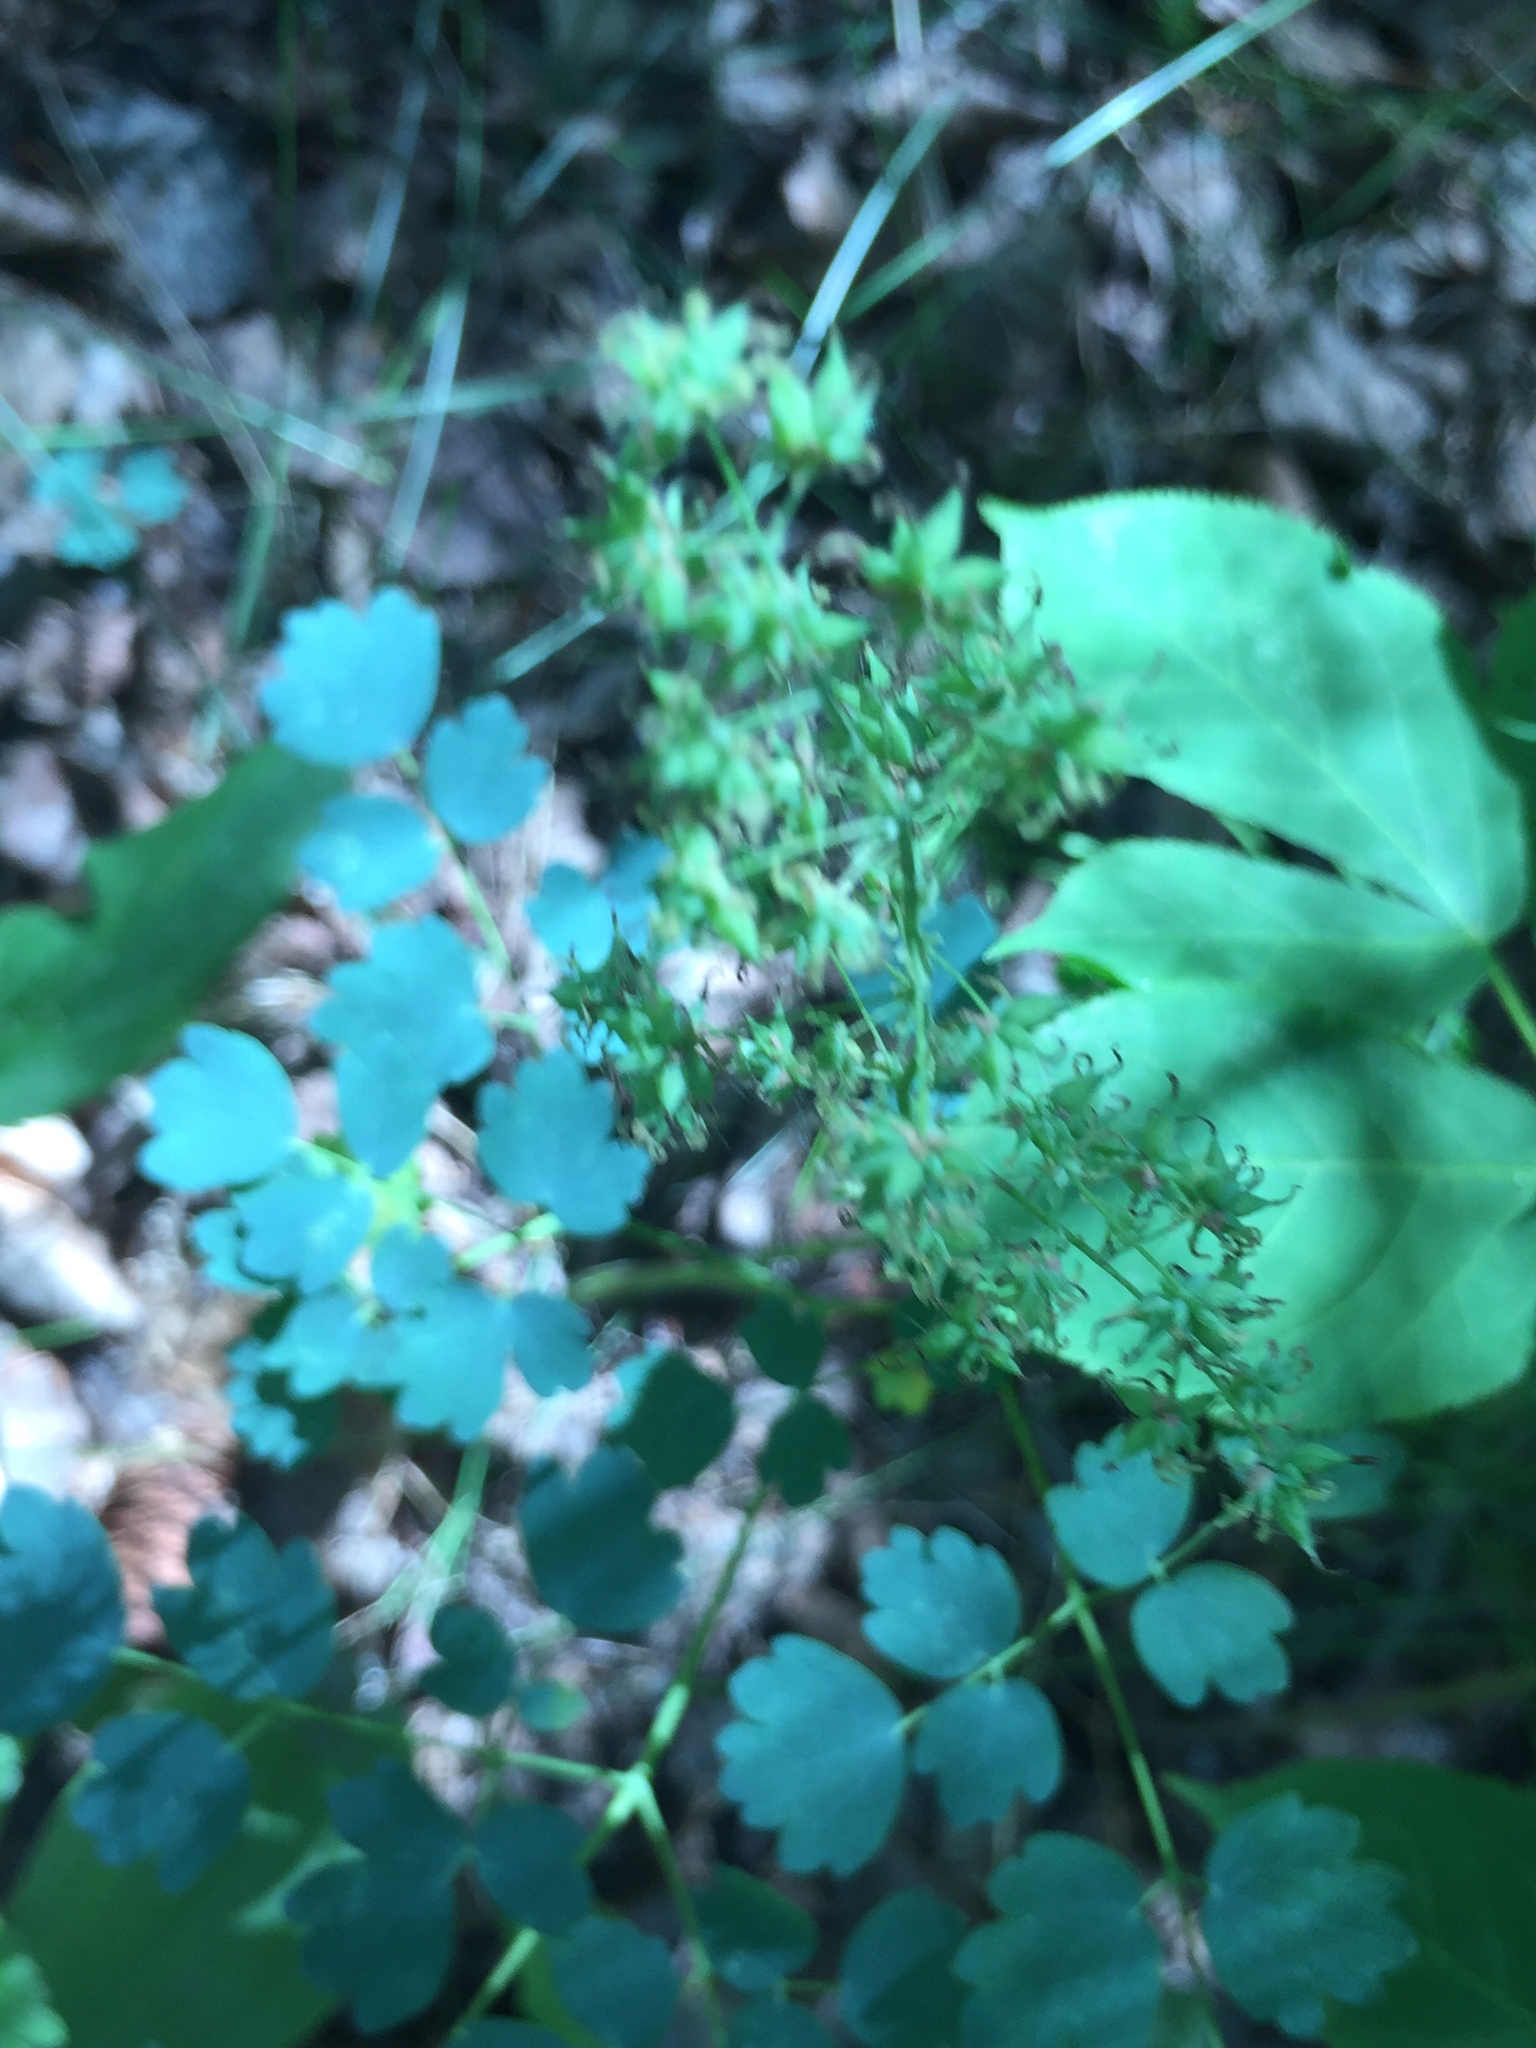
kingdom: Plantae
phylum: Tracheophyta
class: Magnoliopsida
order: Ranunculales
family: Ranunculaceae
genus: Thalictrum
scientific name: Thalictrum venulosum
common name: Early meadow-rue
